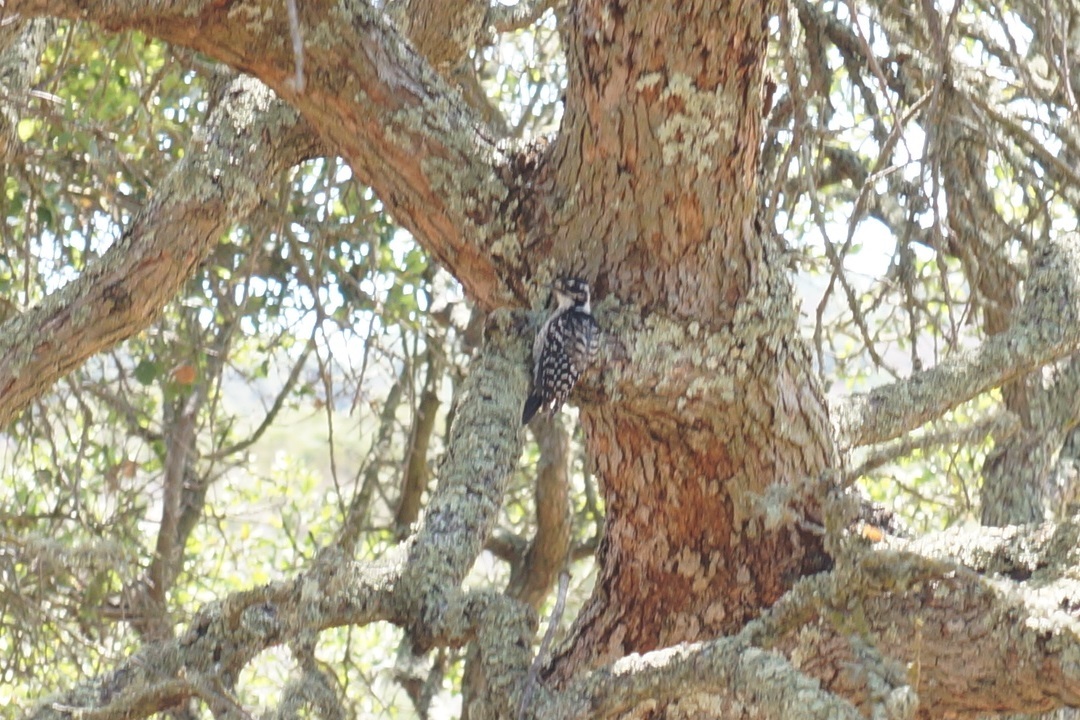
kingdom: Animalia
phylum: Chordata
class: Aves
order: Piciformes
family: Picidae
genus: Dryobates
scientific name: Dryobates nuttallii
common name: Nuttall's woodpecker
